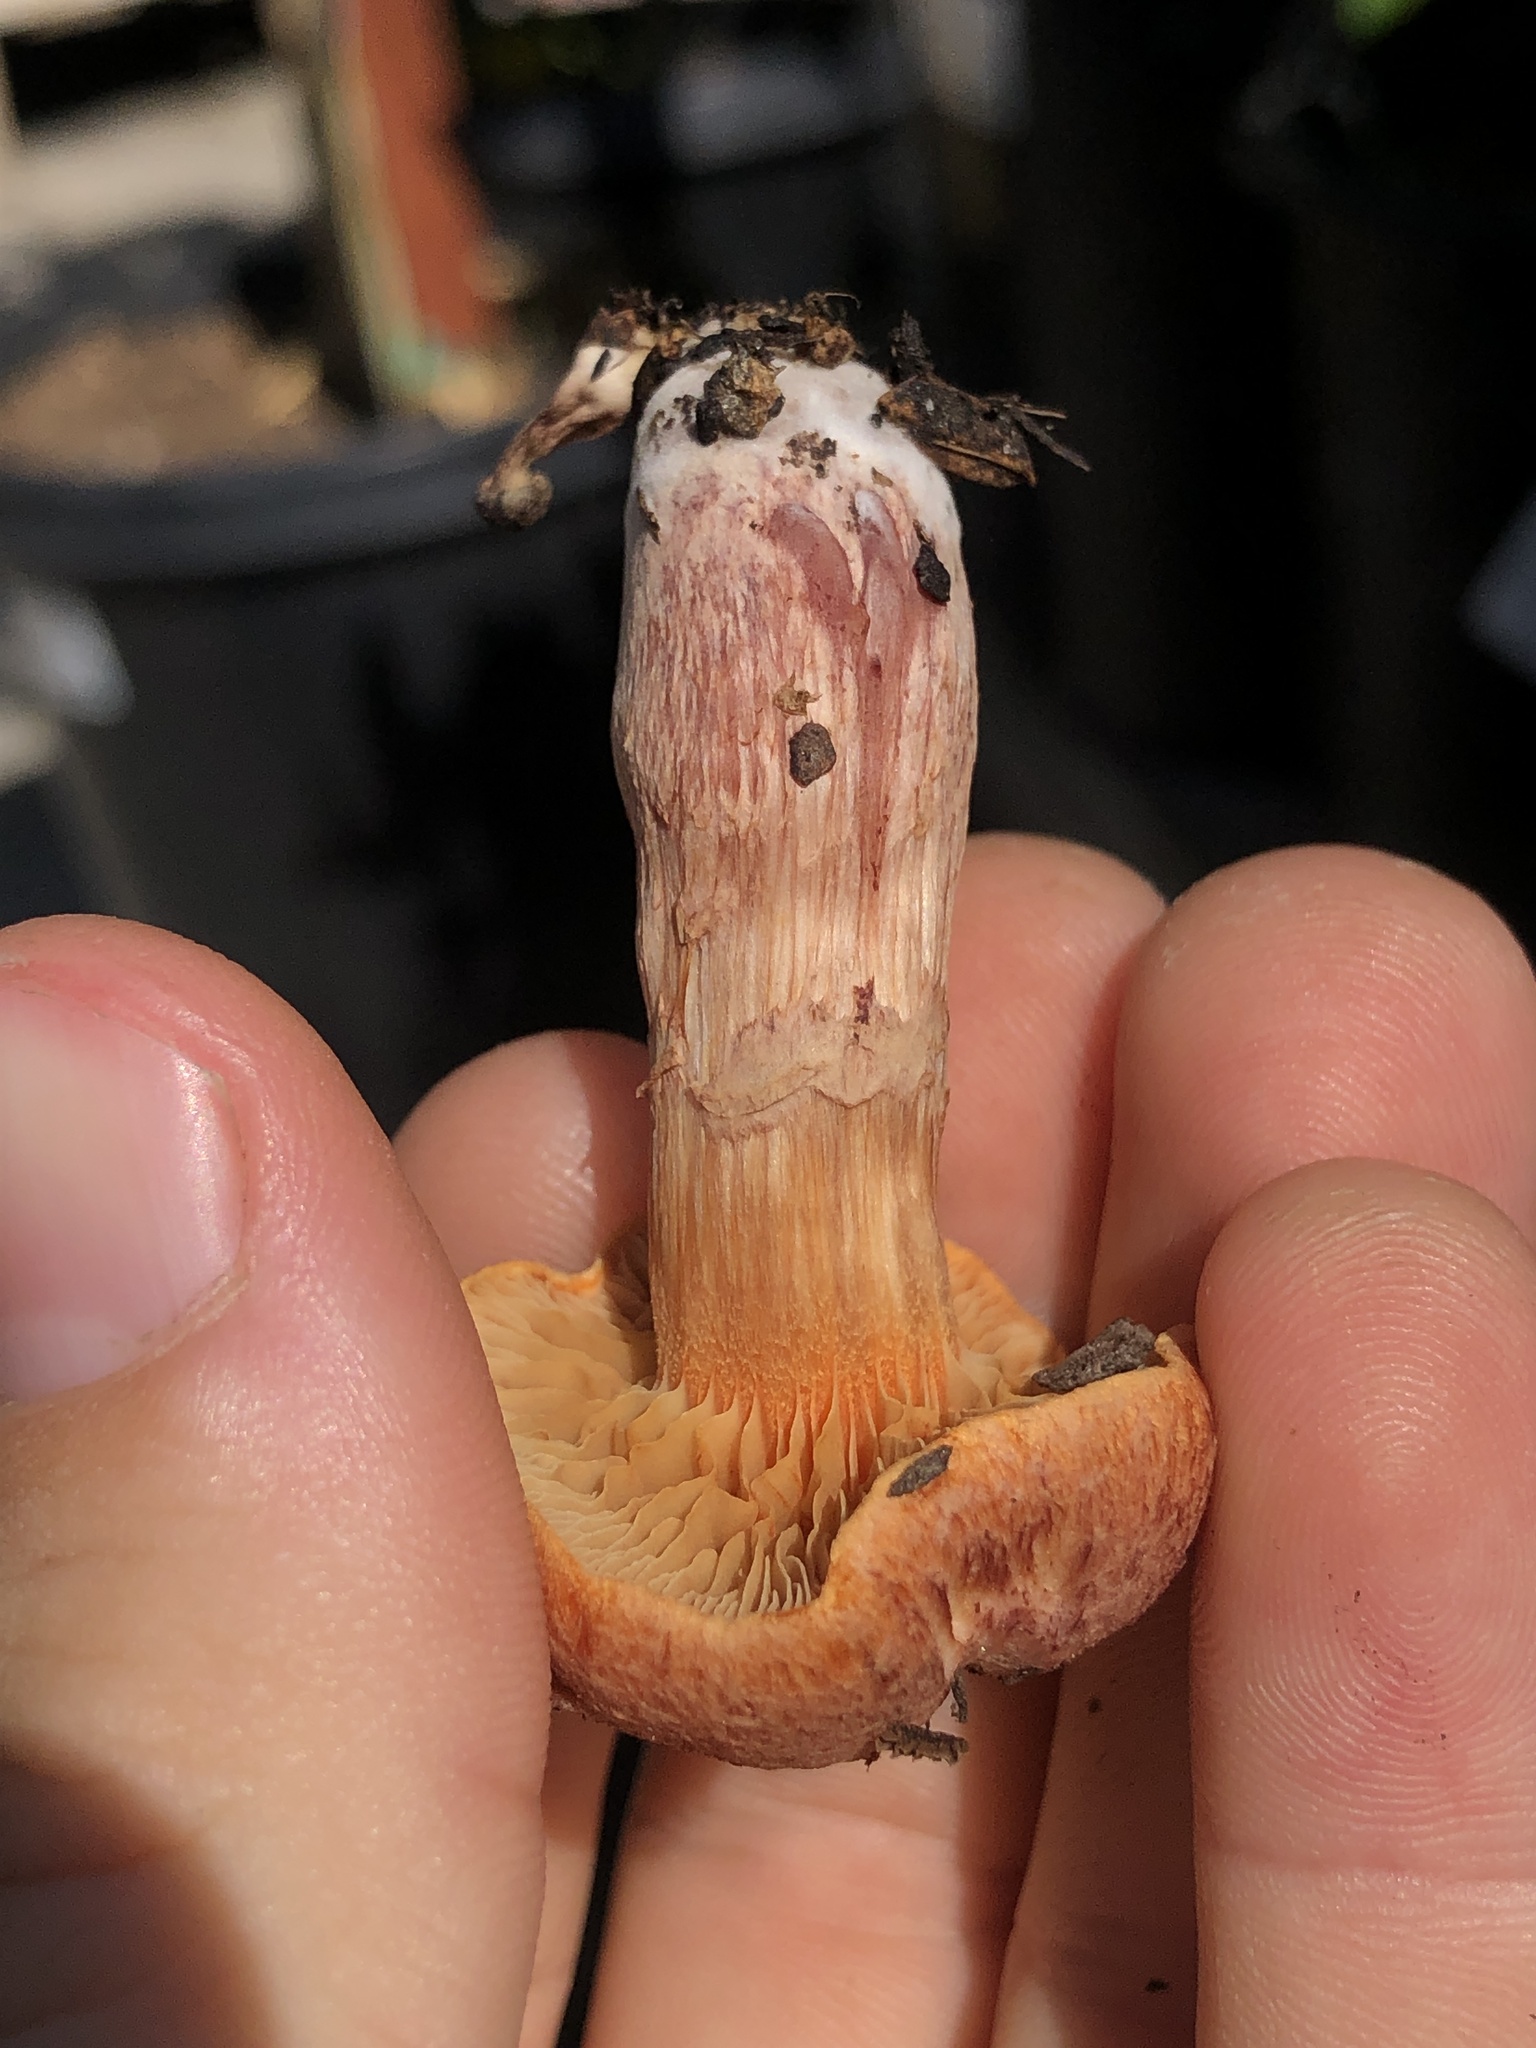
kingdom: Fungi
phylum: Basidiomycota
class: Agaricomycetes
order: Agaricales
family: Hymenogastraceae
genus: Gymnopilus
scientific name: Gymnopilus luteofolius
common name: Yellow-gilled gymnopilus
